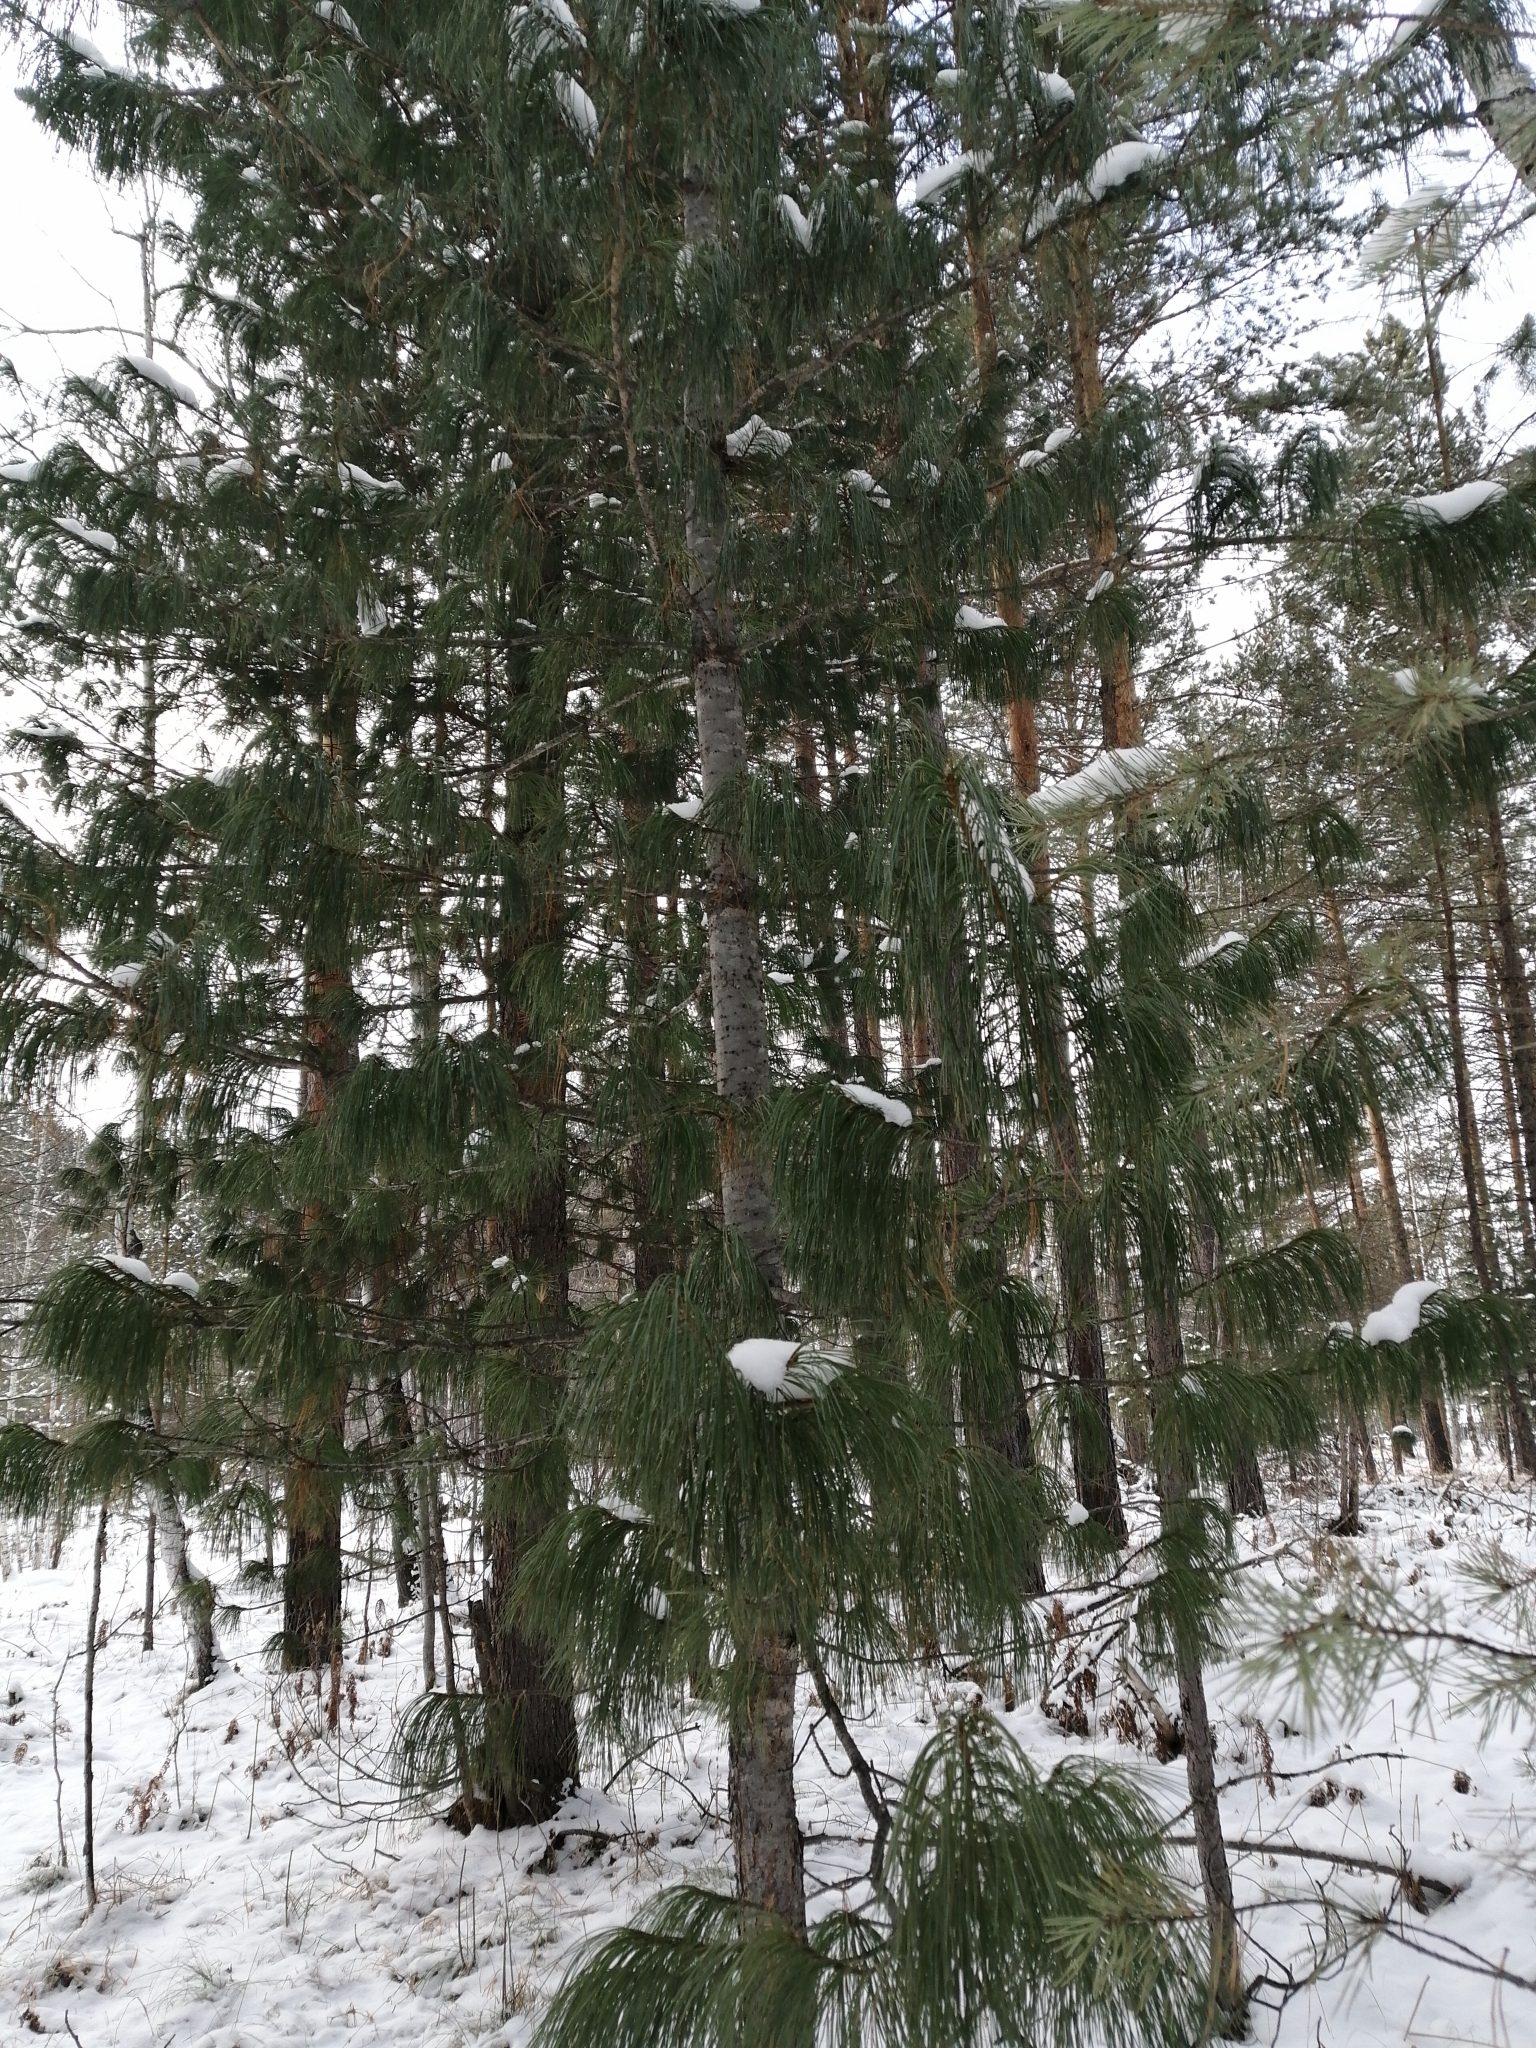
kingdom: Plantae
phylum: Tracheophyta
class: Pinopsida
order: Pinales
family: Pinaceae
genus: Pinus
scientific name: Pinus sibirica
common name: Siberian pine
